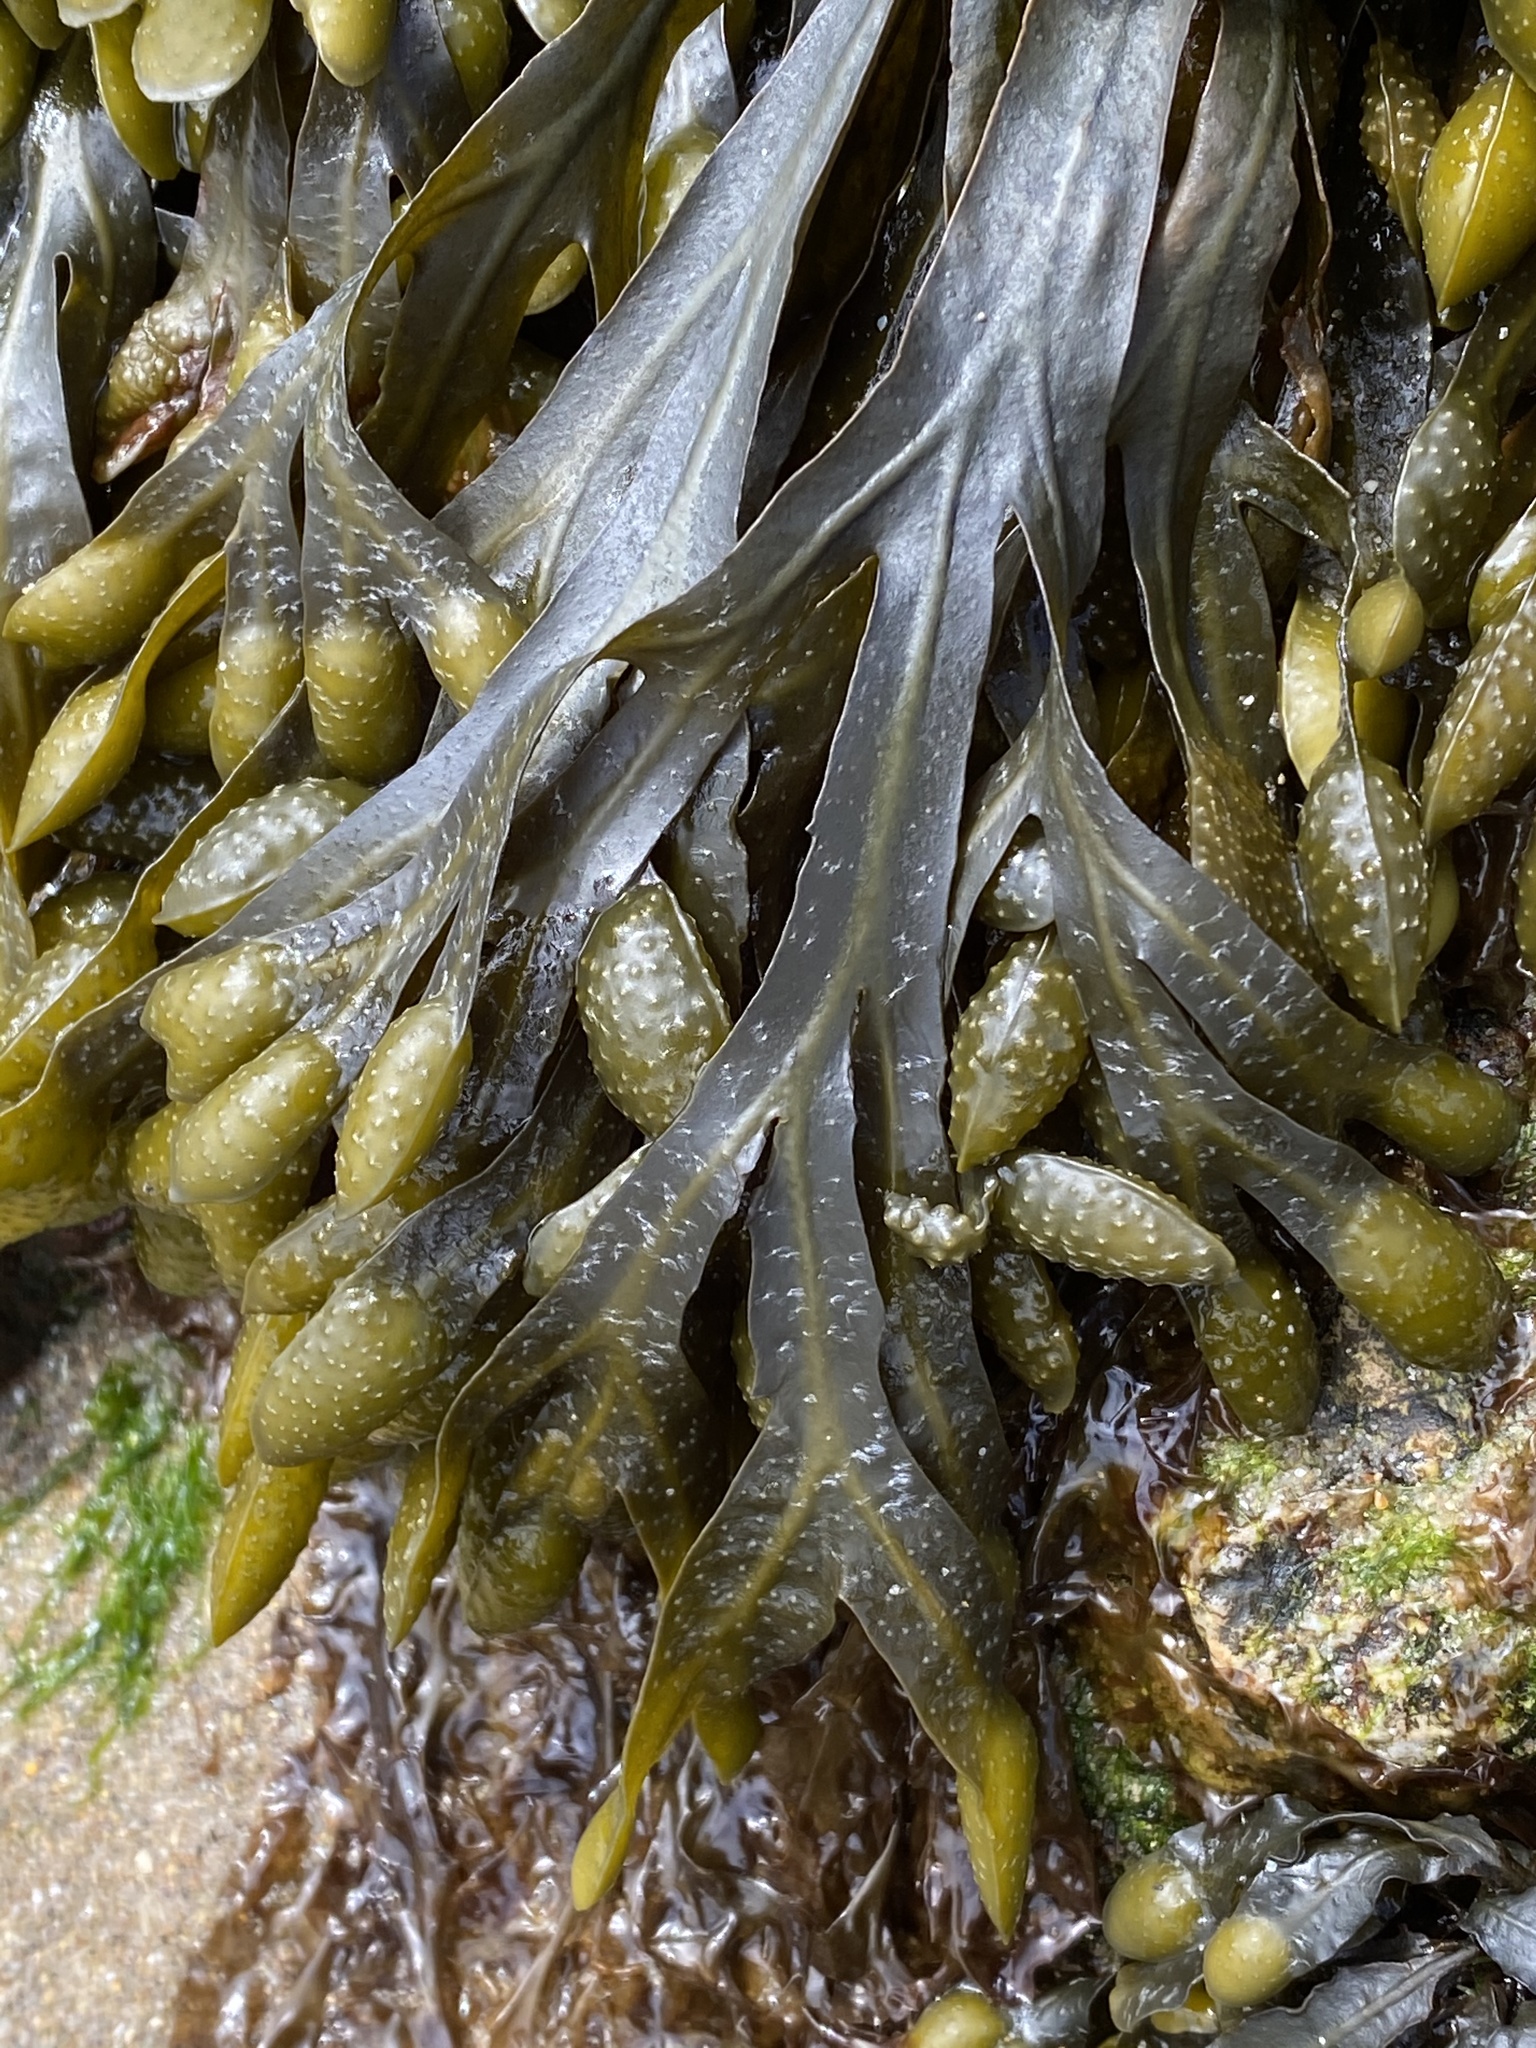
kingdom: Chromista
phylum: Ochrophyta
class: Phaeophyceae
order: Fucales
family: Fucaceae
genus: Fucus
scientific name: Fucus spiralis
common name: Spiral wrack
